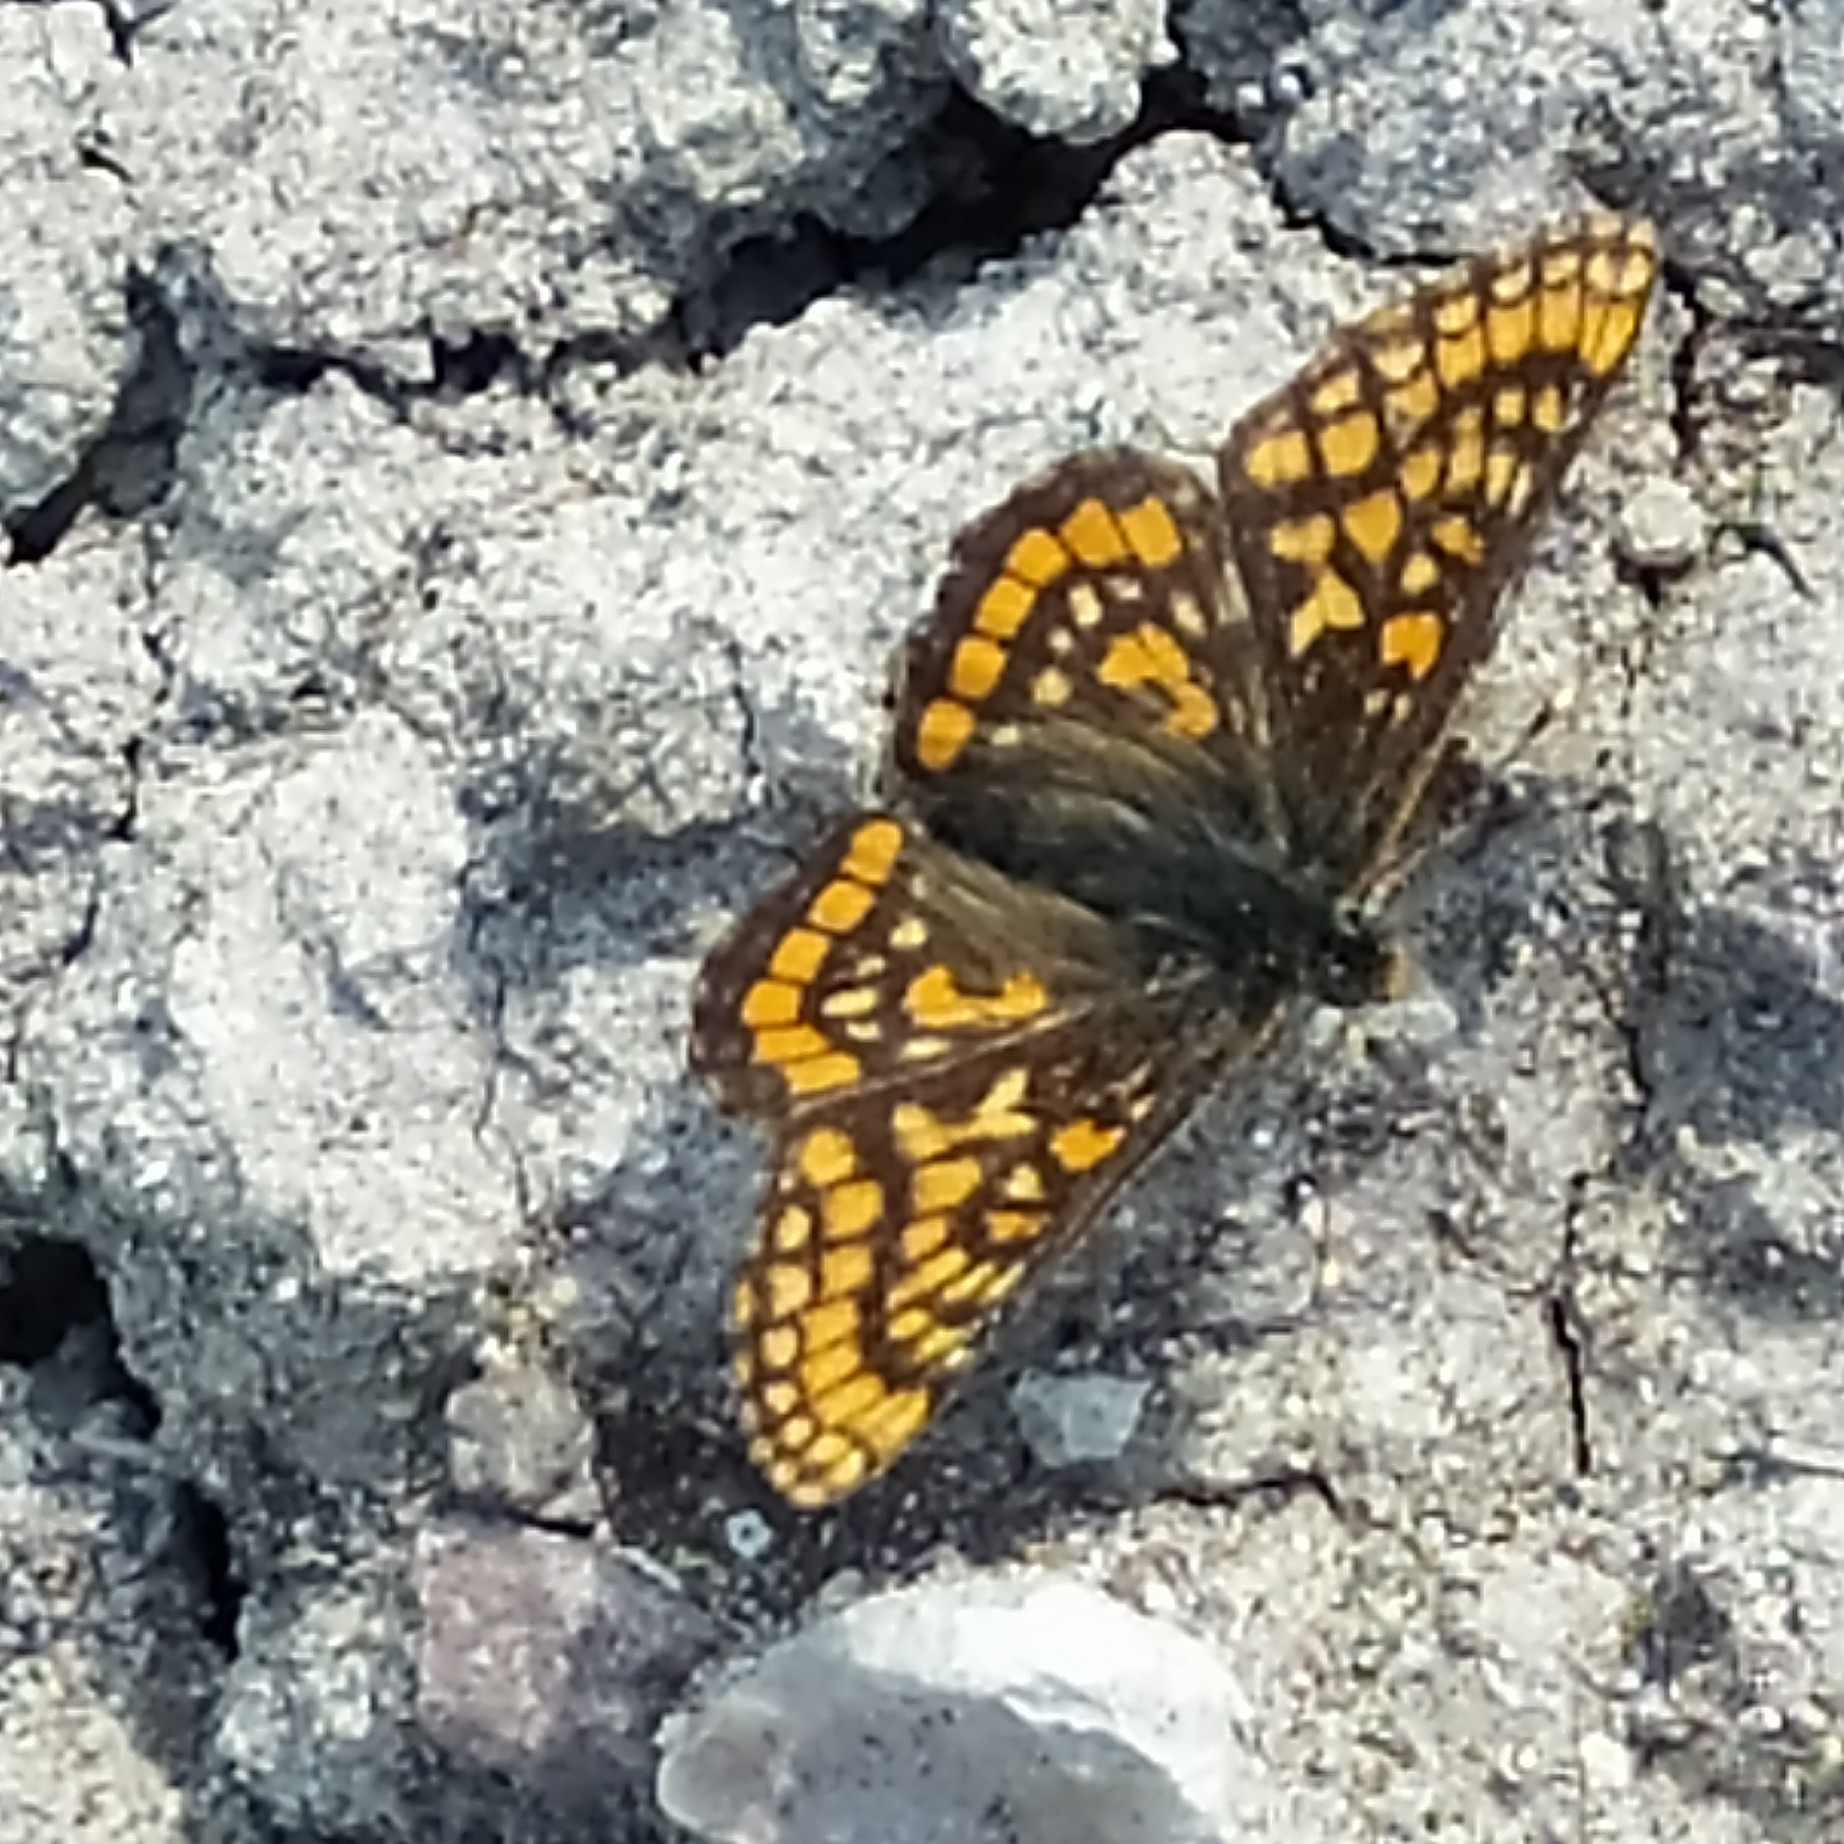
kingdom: Animalia
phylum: Arthropoda
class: Insecta
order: Lepidoptera
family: Nymphalidae
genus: Hypodryas
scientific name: Hypodryas intermedia
